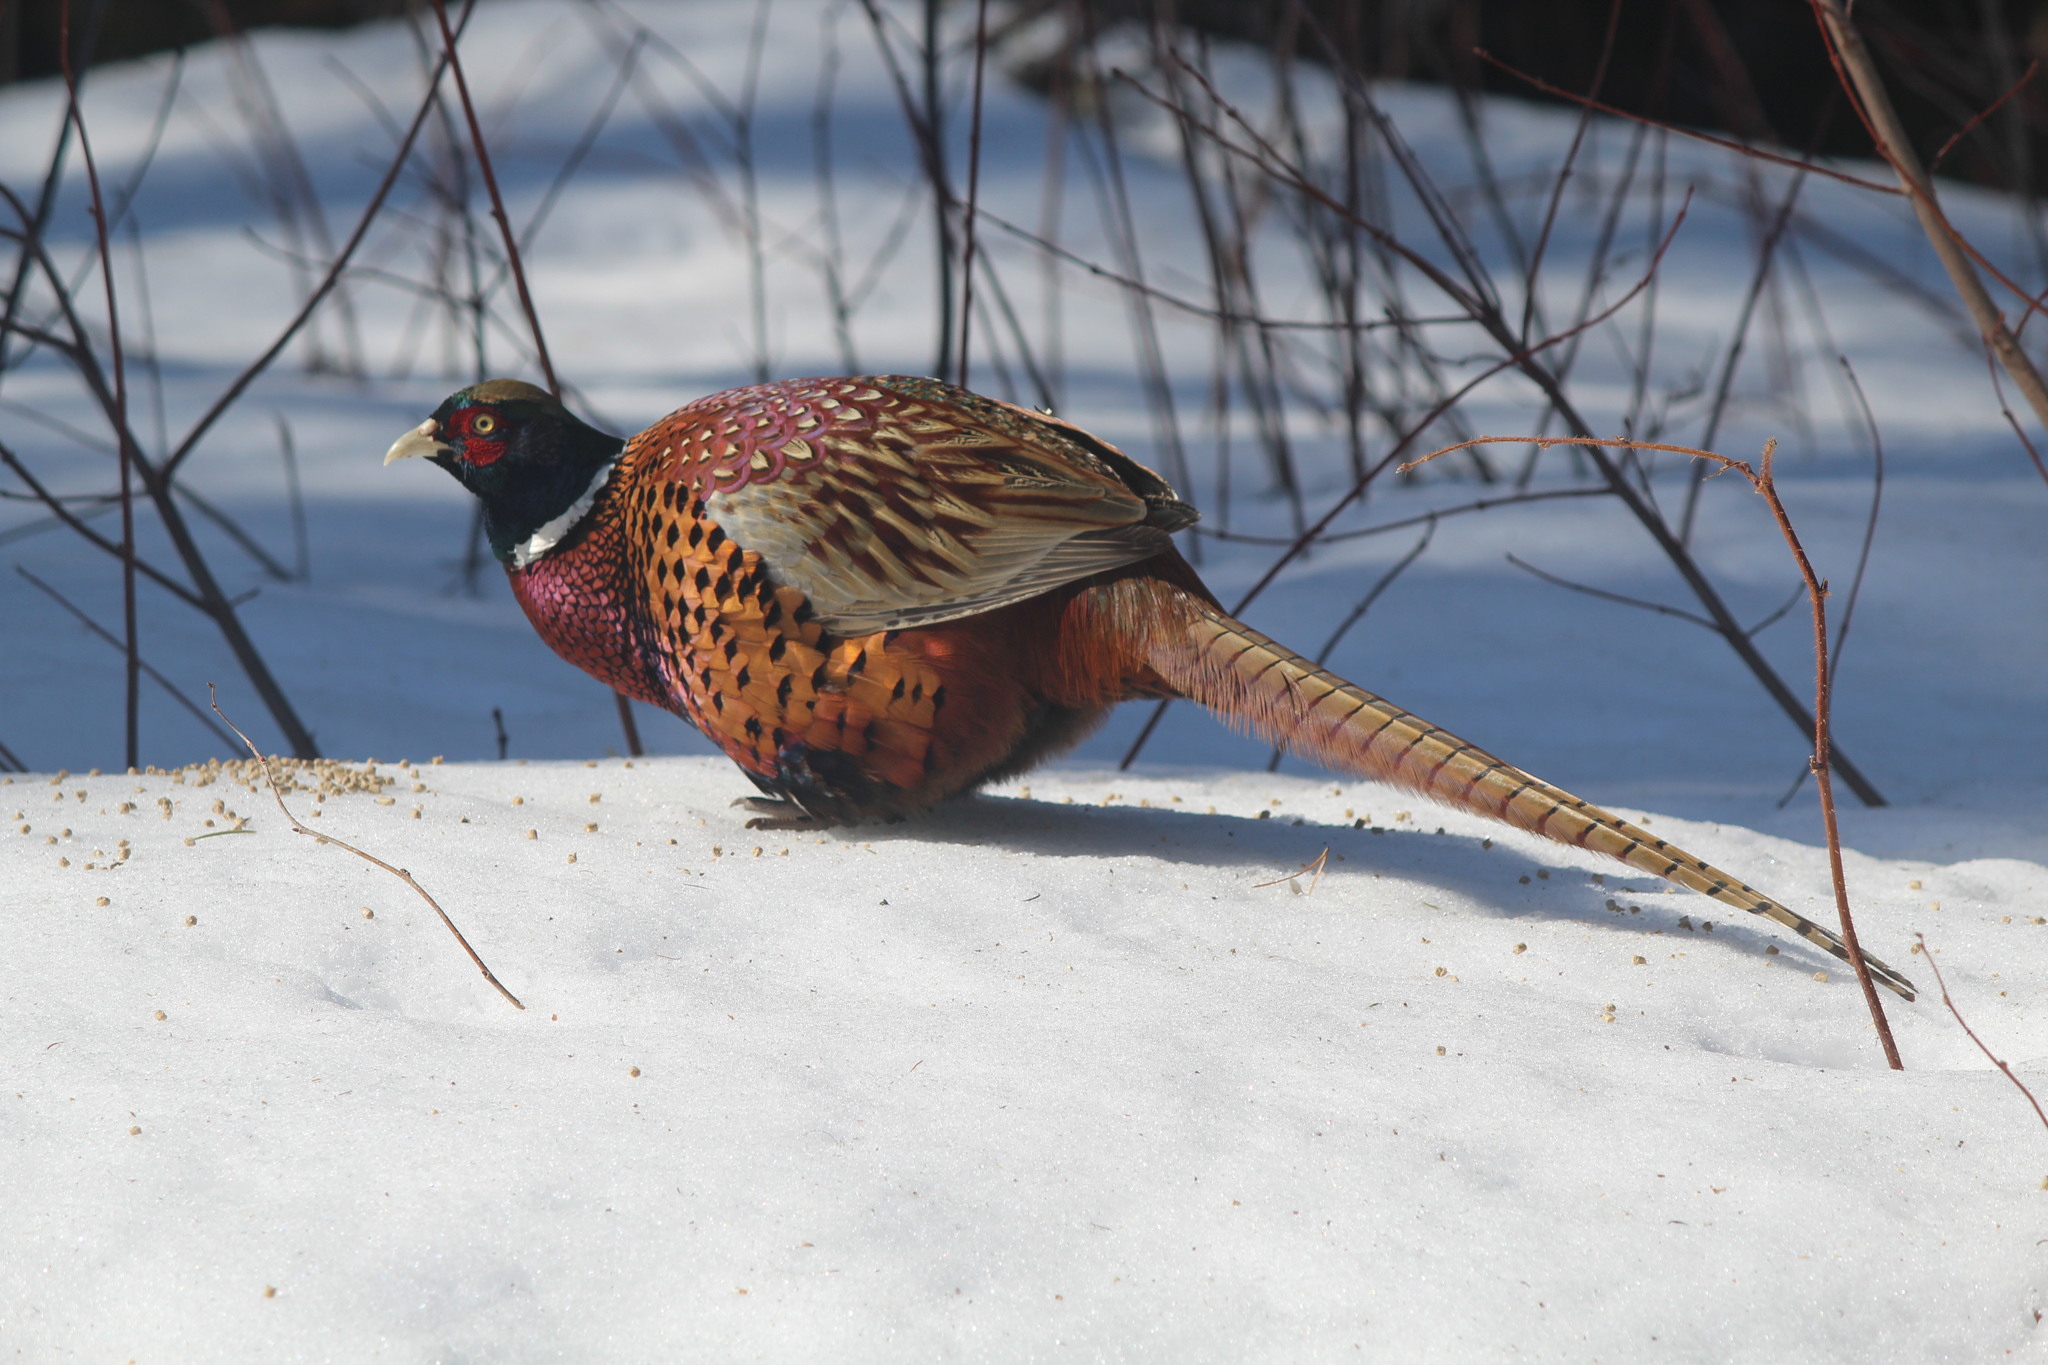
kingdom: Animalia
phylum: Chordata
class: Aves
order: Galliformes
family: Phasianidae
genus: Phasianus
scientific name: Phasianus colchicus
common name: Common pheasant
